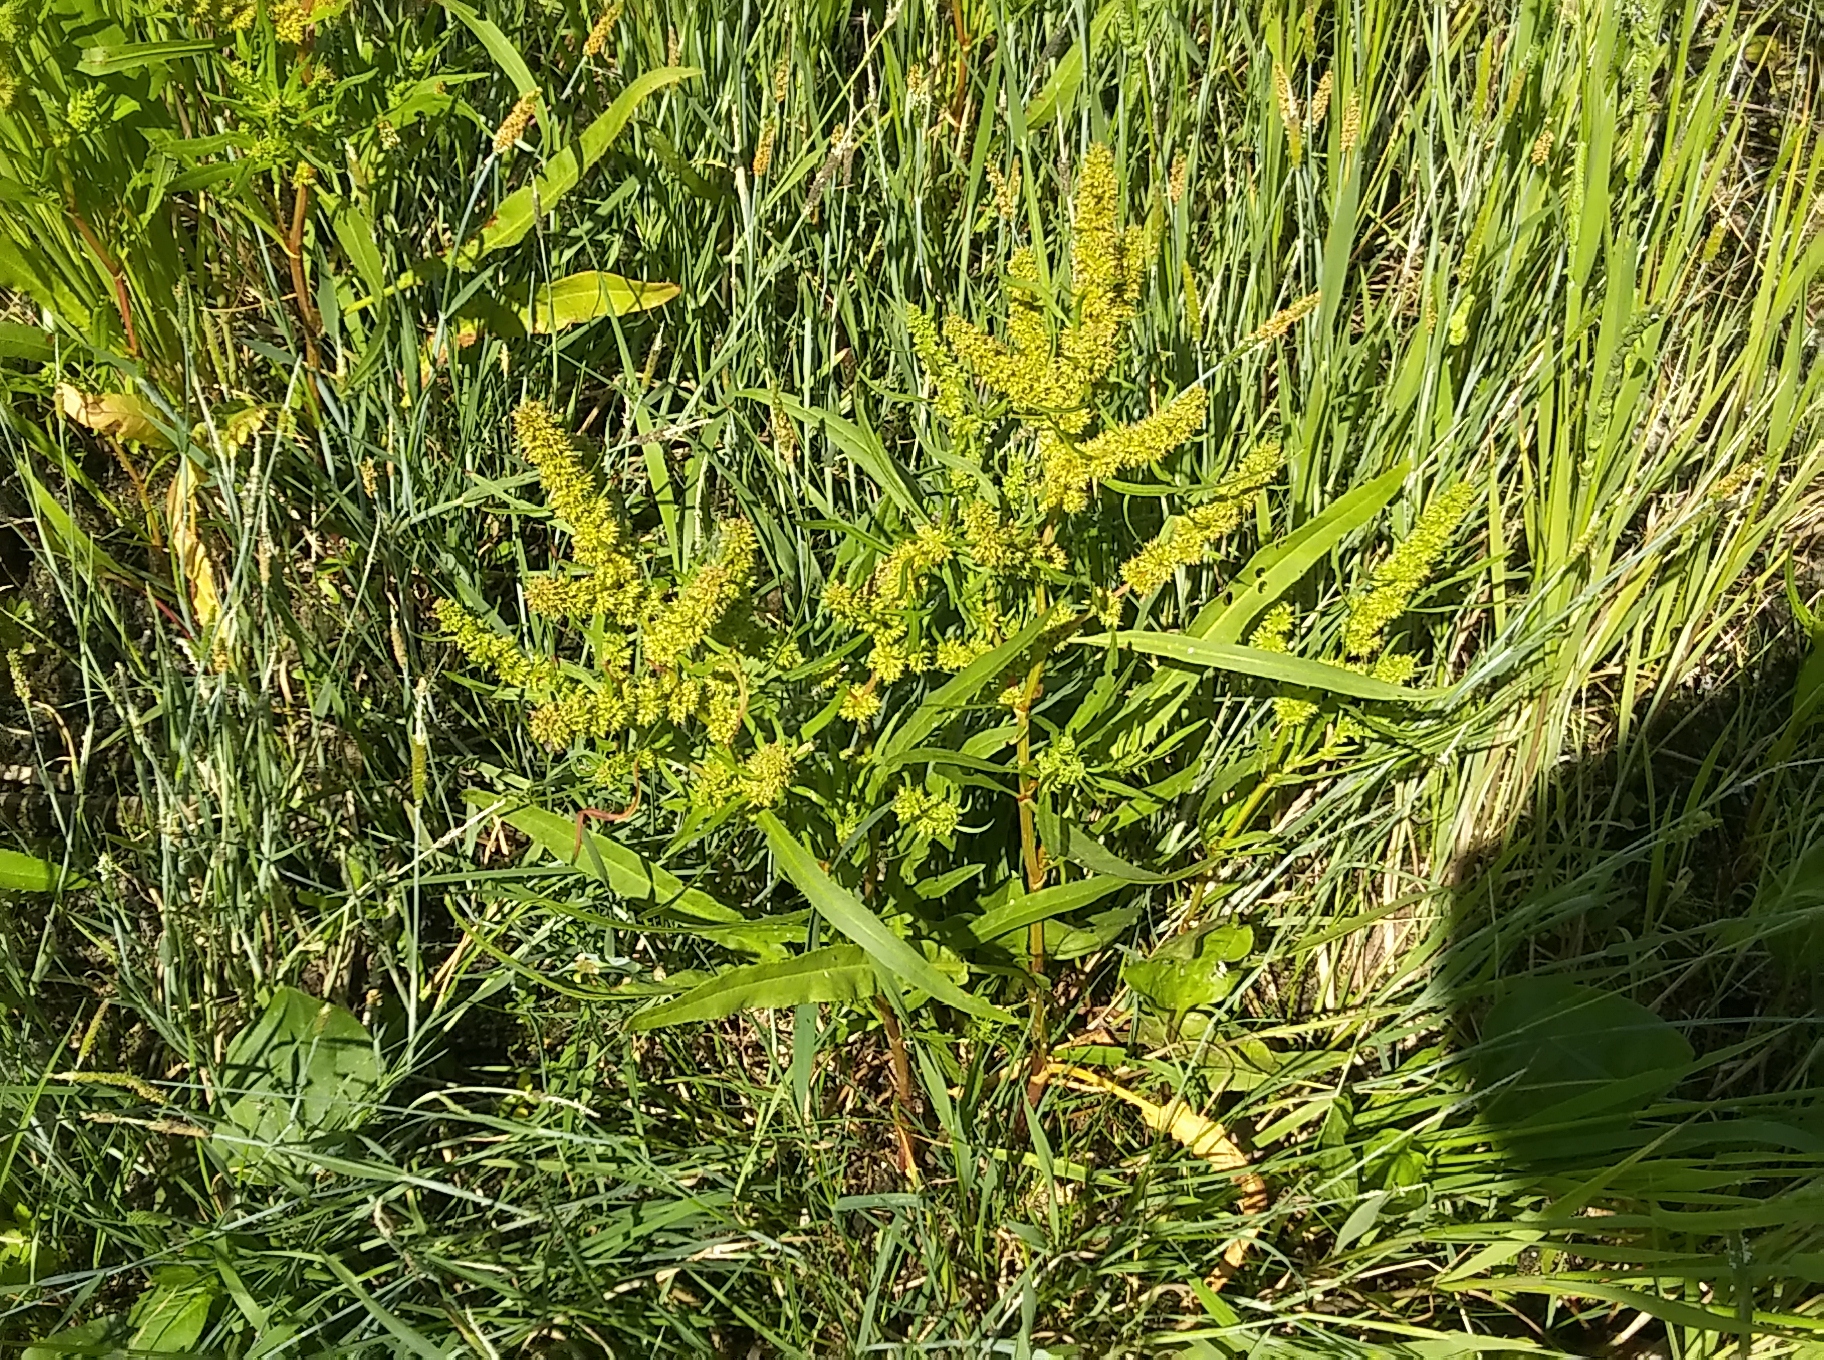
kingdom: Plantae
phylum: Tracheophyta
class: Magnoliopsida
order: Caryophyllales
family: Polygonaceae
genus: Rumex
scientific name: Rumex maritimus
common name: Golden dock
